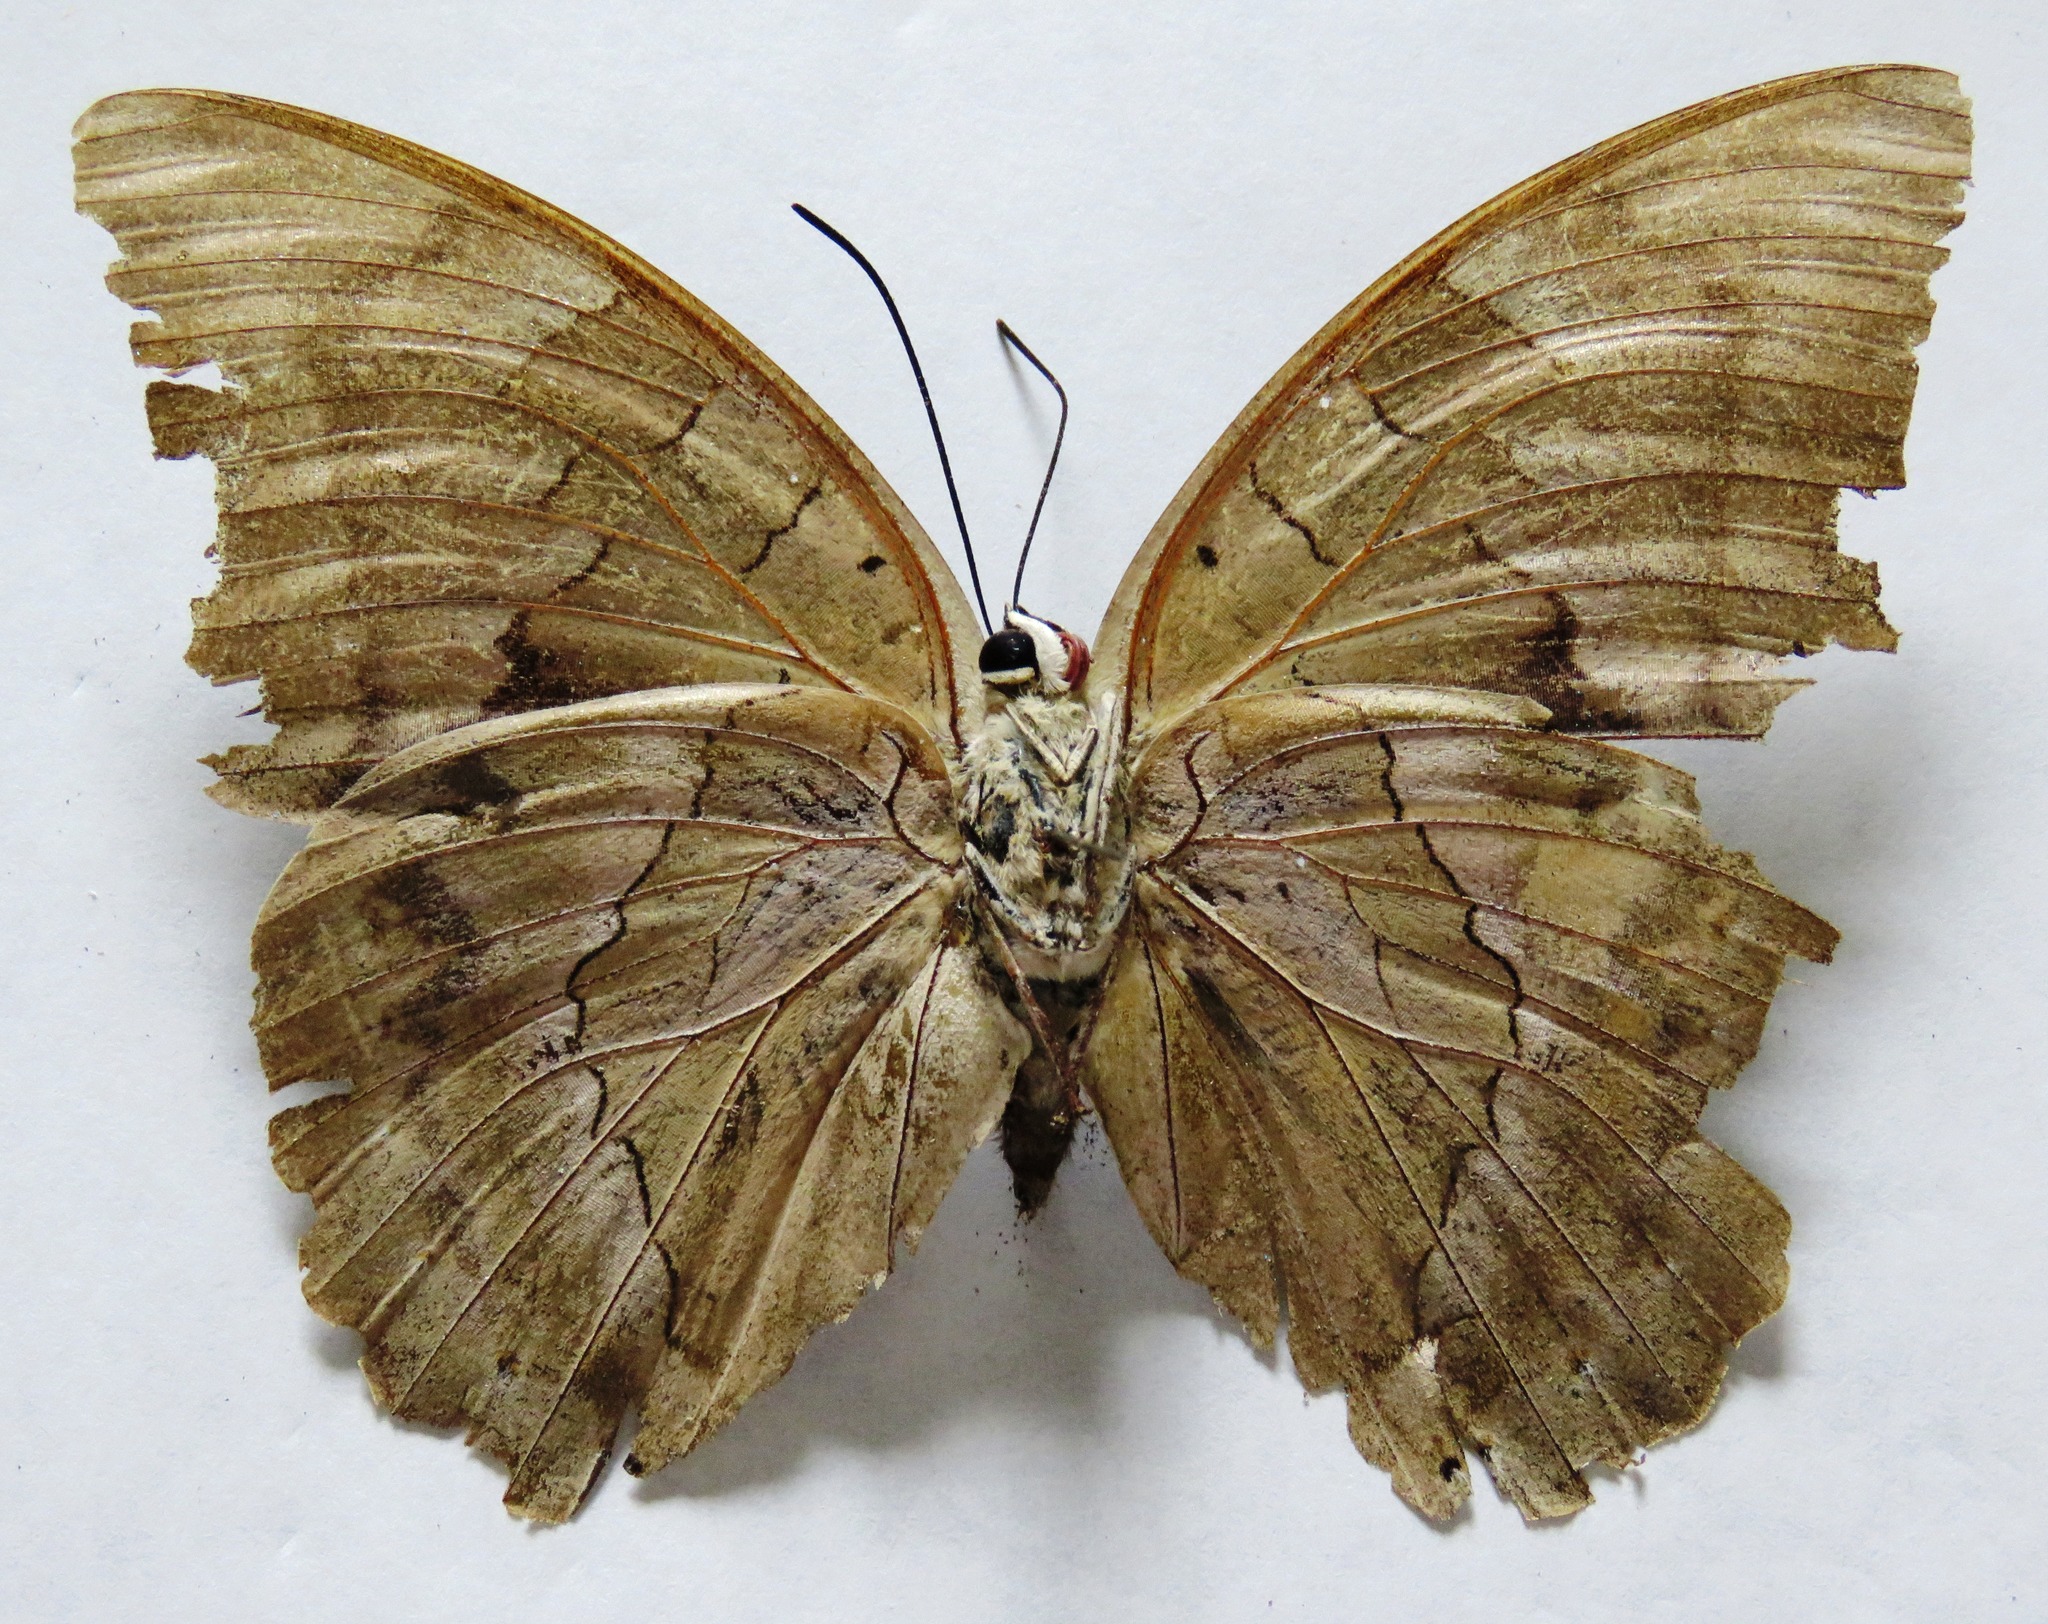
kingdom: Animalia
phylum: Arthropoda
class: Insecta
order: Lepidoptera
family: Nymphalidae
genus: Prepona
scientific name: Prepona Archaeoprepona demophon
